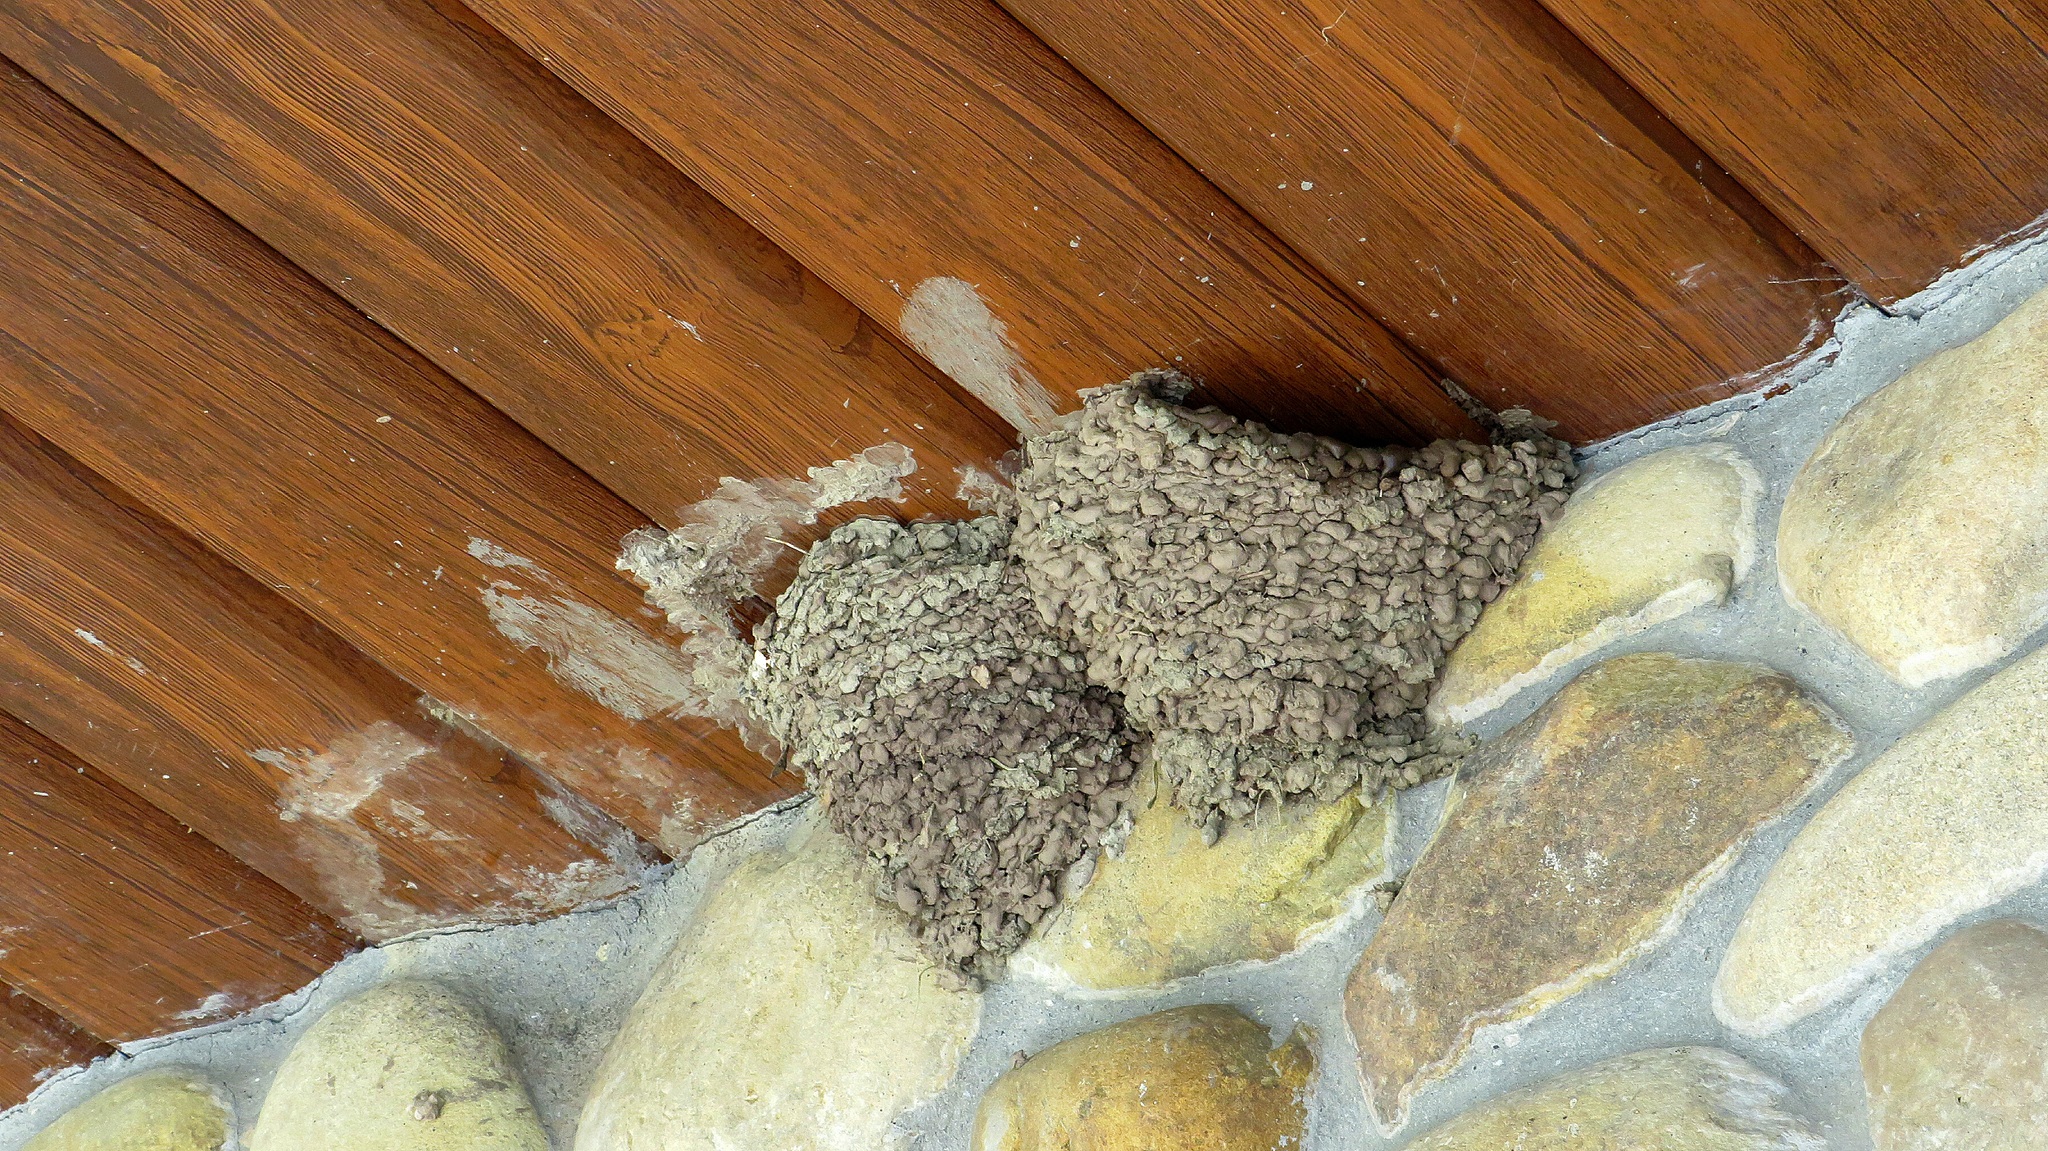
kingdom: Animalia
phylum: Chordata
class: Aves
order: Passeriformes
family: Hirundinidae
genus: Delichon
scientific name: Delichon urbicum
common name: Common house martin
